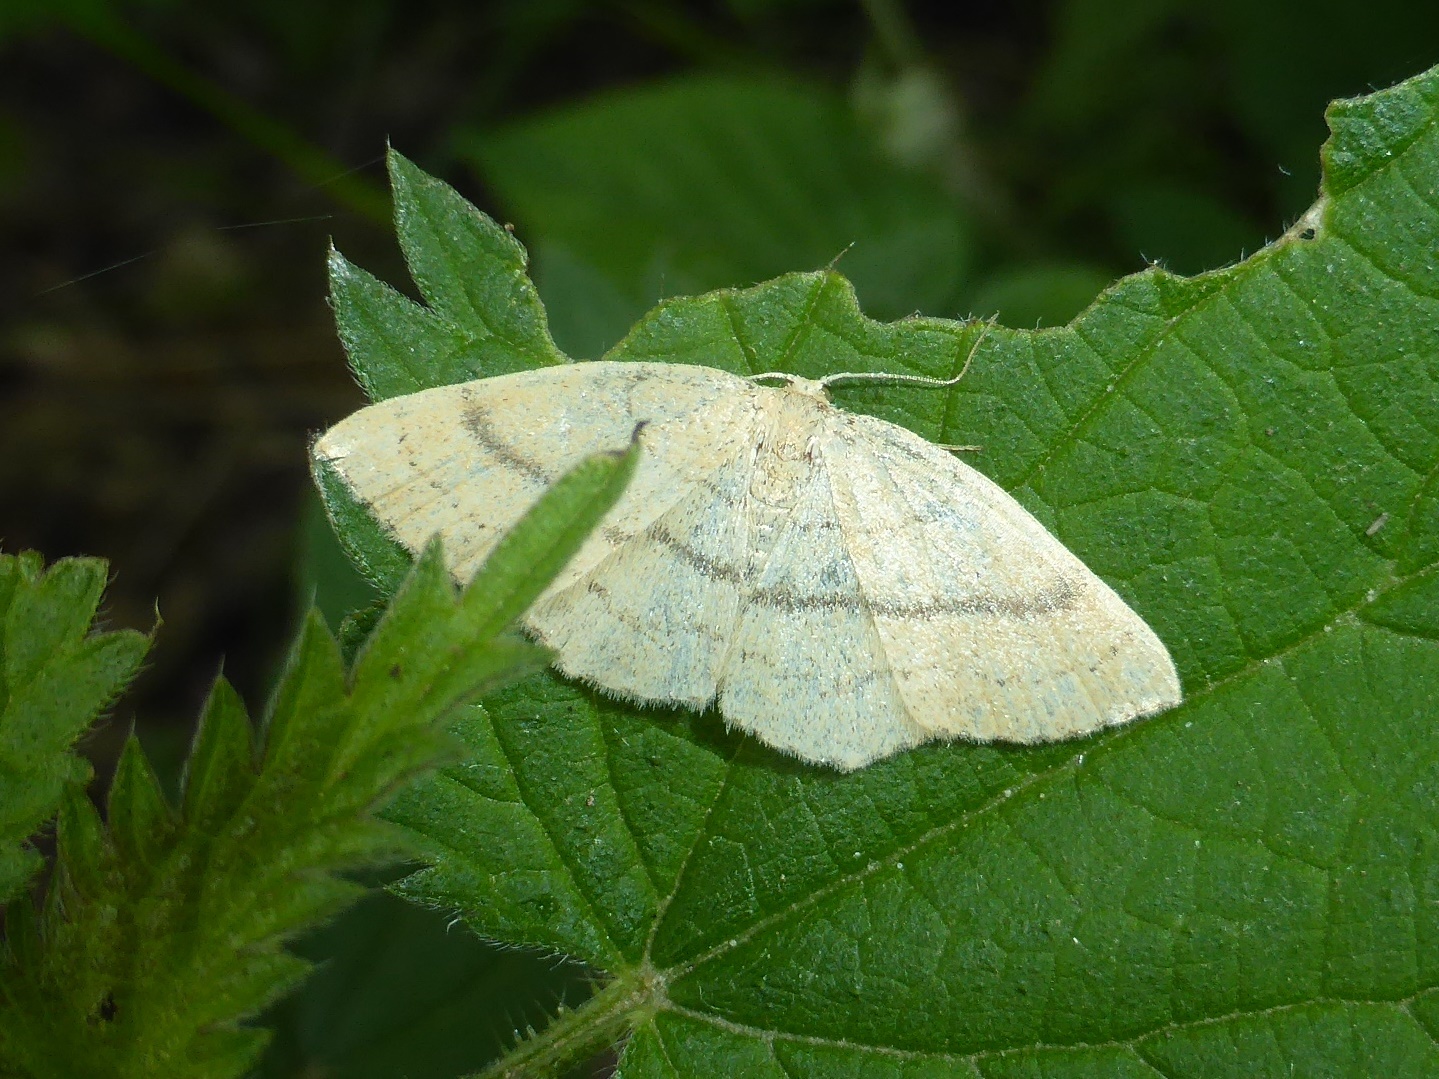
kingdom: Animalia
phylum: Arthropoda
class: Insecta
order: Lepidoptera
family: Geometridae
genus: Cyclophora
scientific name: Cyclophora linearia
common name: Clay triple-lines
